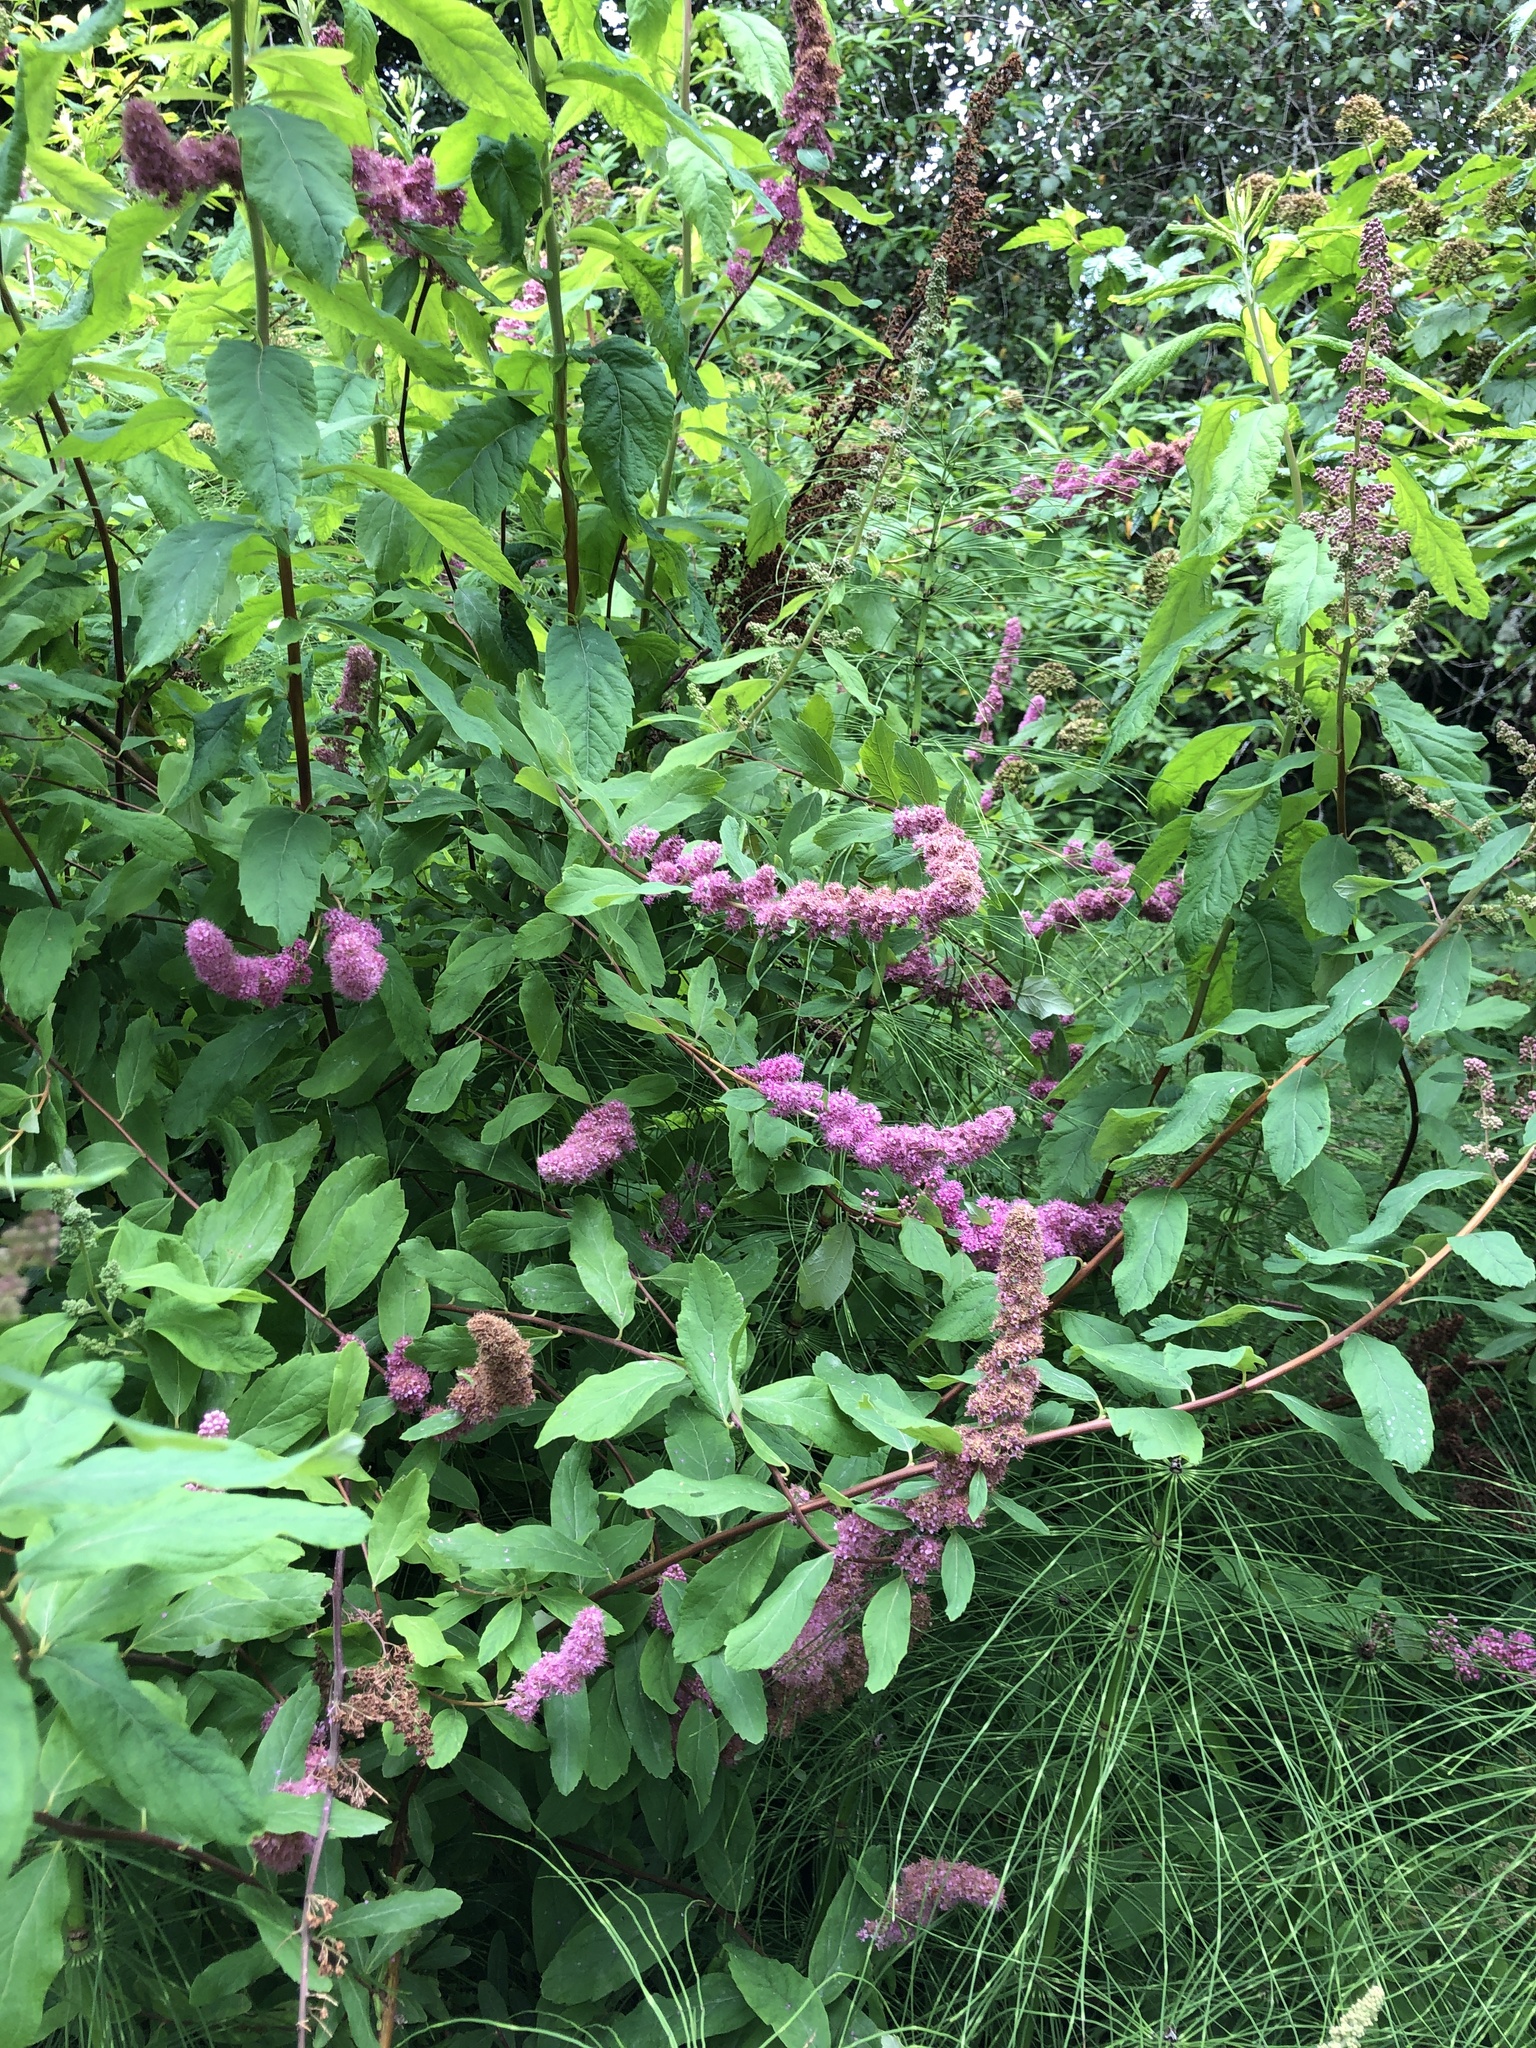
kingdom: Plantae
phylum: Tracheophyta
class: Magnoliopsida
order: Rosales
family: Rosaceae
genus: Spiraea
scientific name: Spiraea douglasii
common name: Steeplebush
